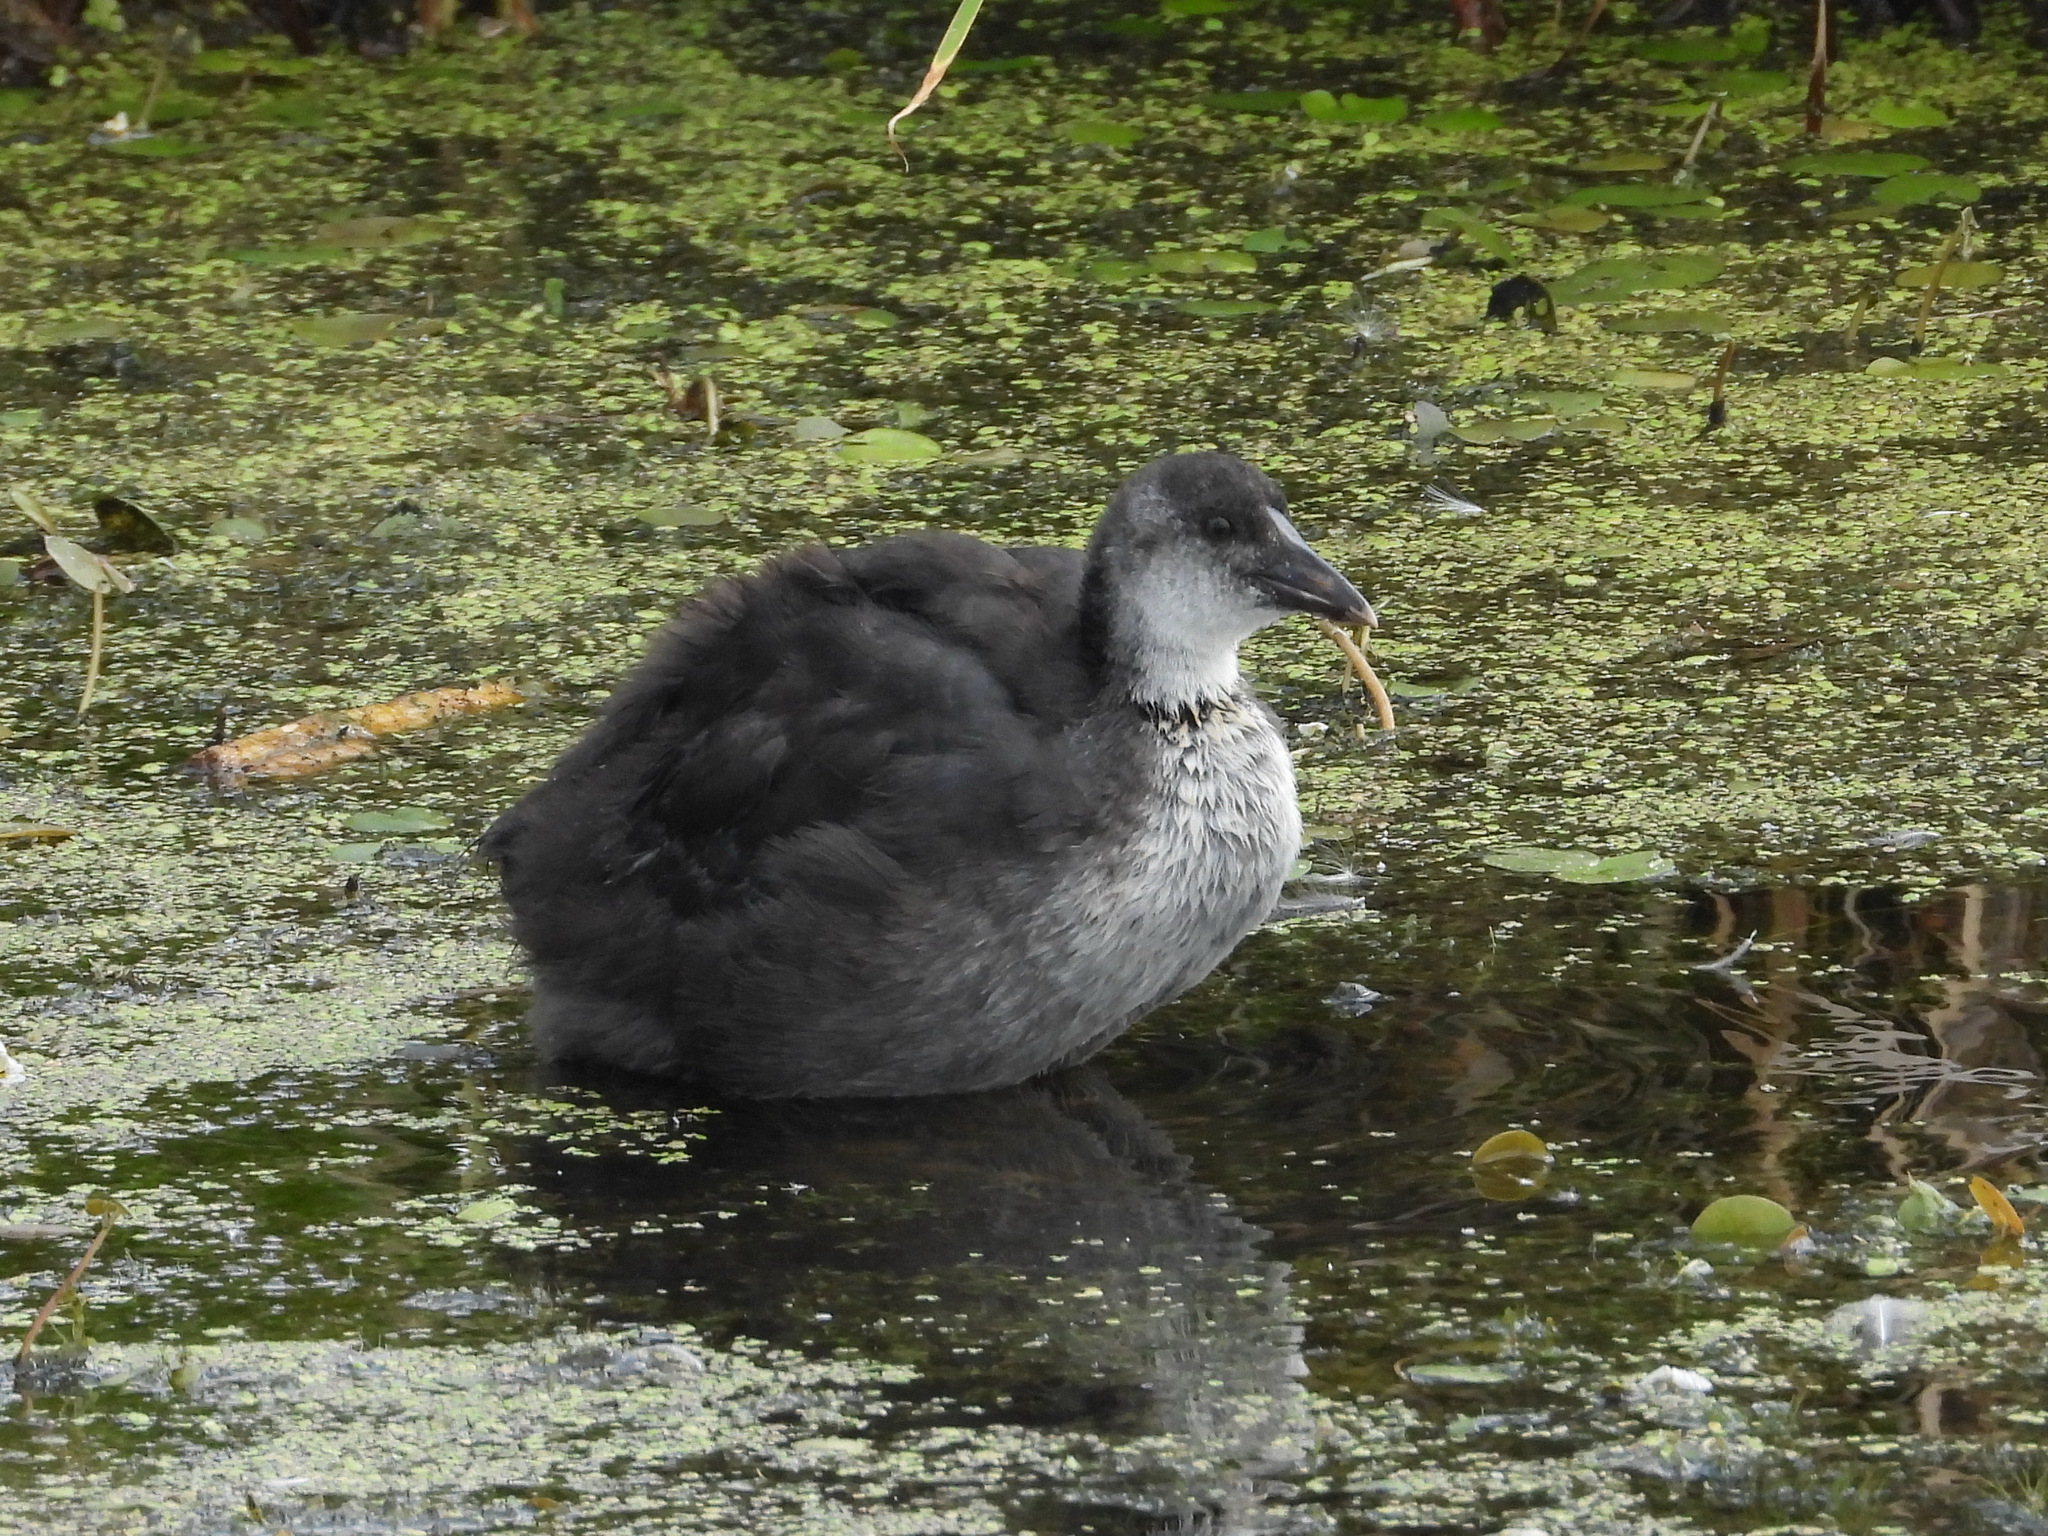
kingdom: Animalia
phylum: Chordata
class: Aves
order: Gruiformes
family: Rallidae
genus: Fulica
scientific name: Fulica atra
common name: Eurasian coot
